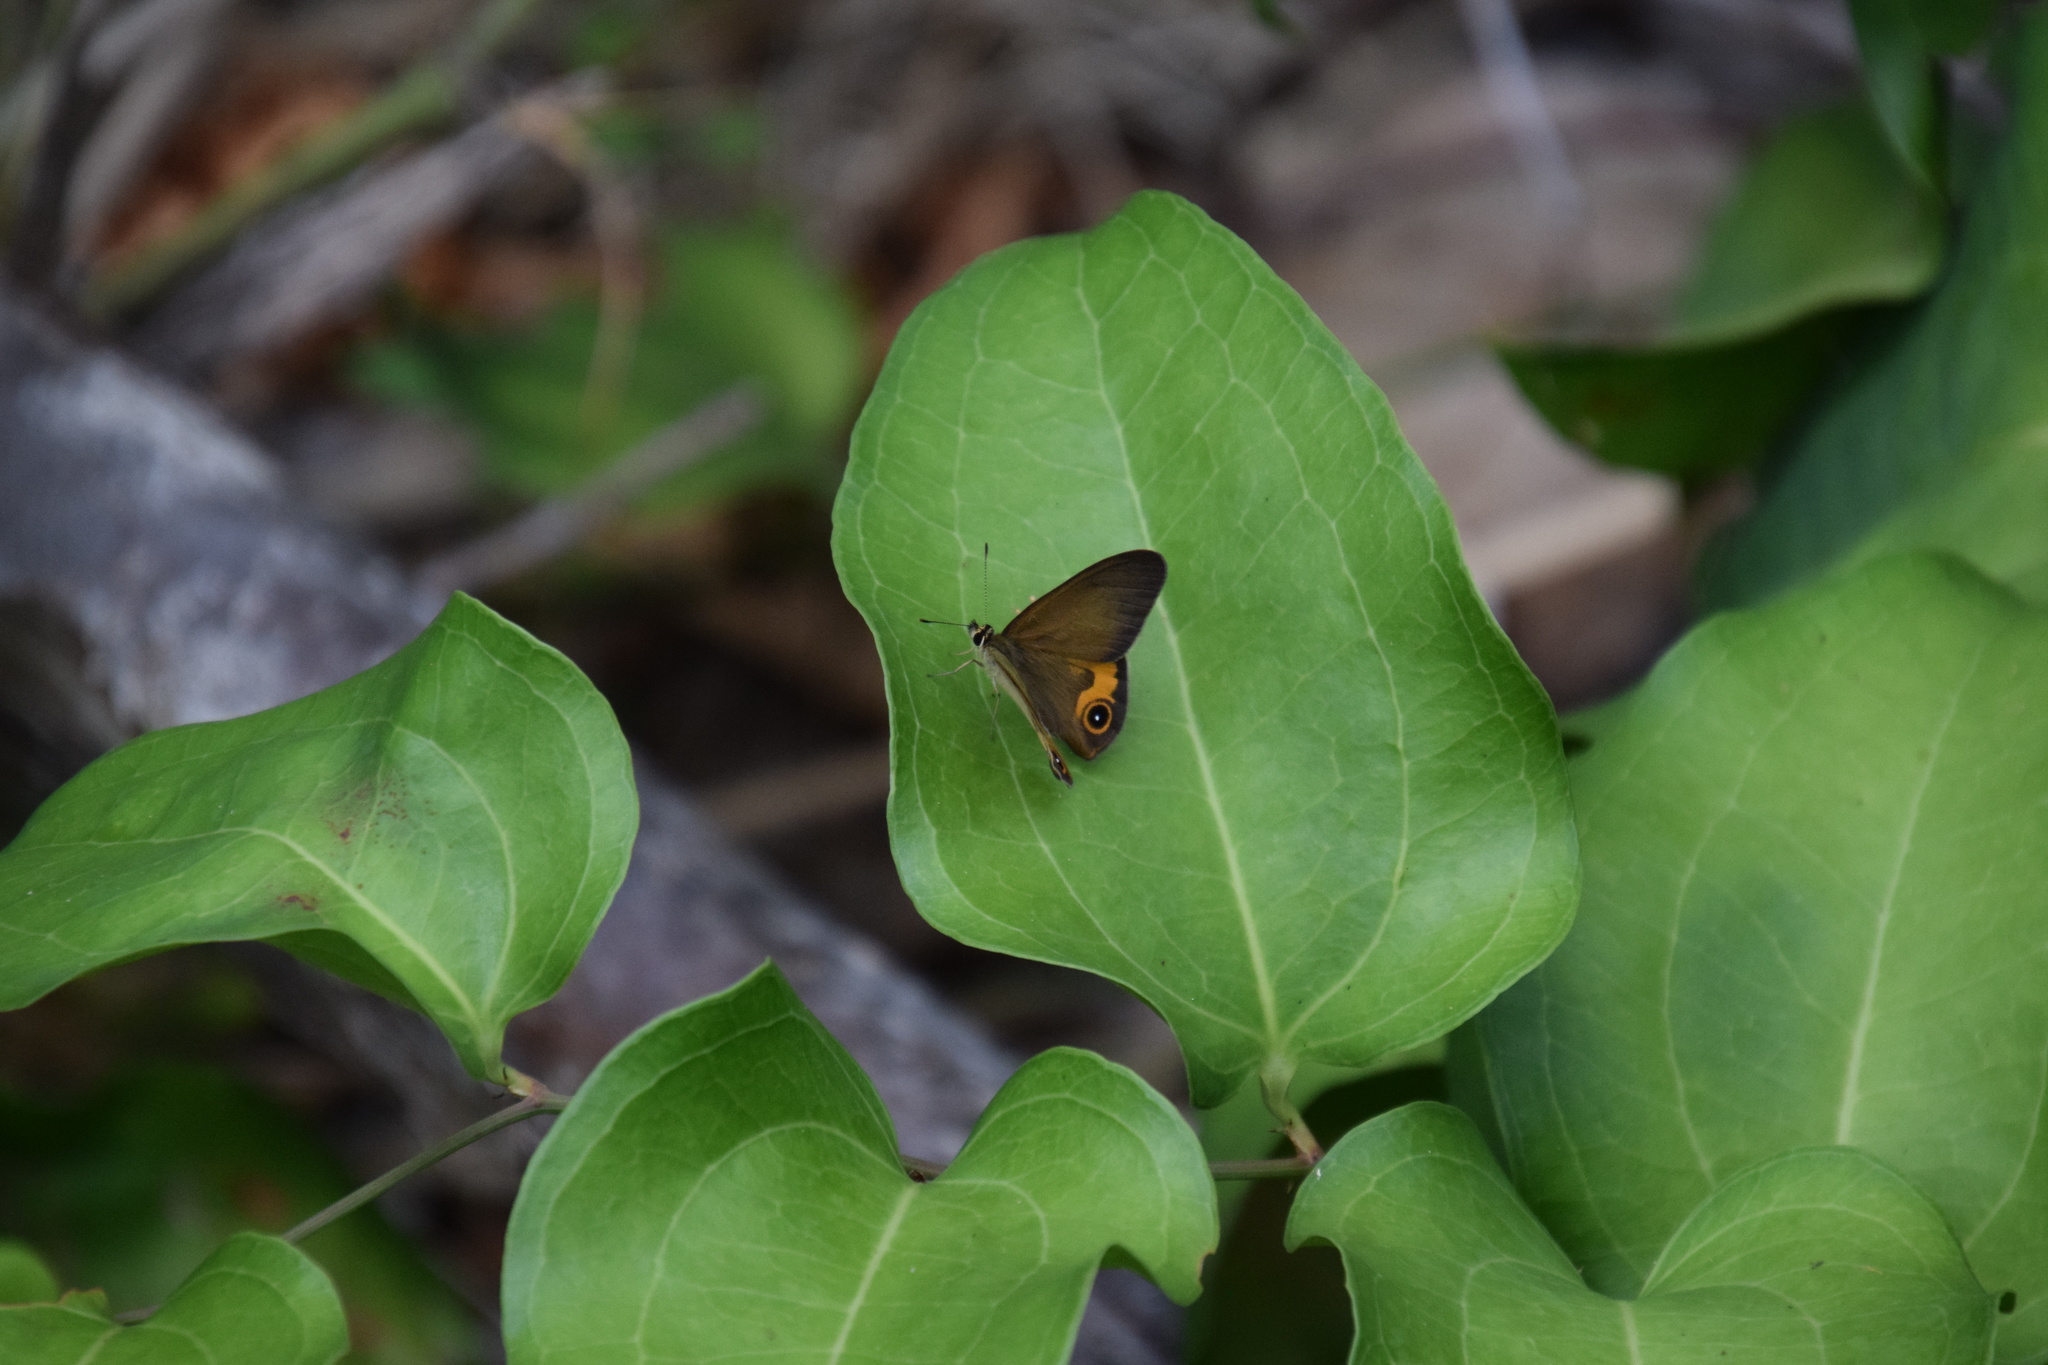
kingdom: Animalia
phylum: Arthropoda
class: Insecta
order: Lepidoptera
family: Nymphalidae
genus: Hypocysta
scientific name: Hypocysta metirius
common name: Brown ringlet
